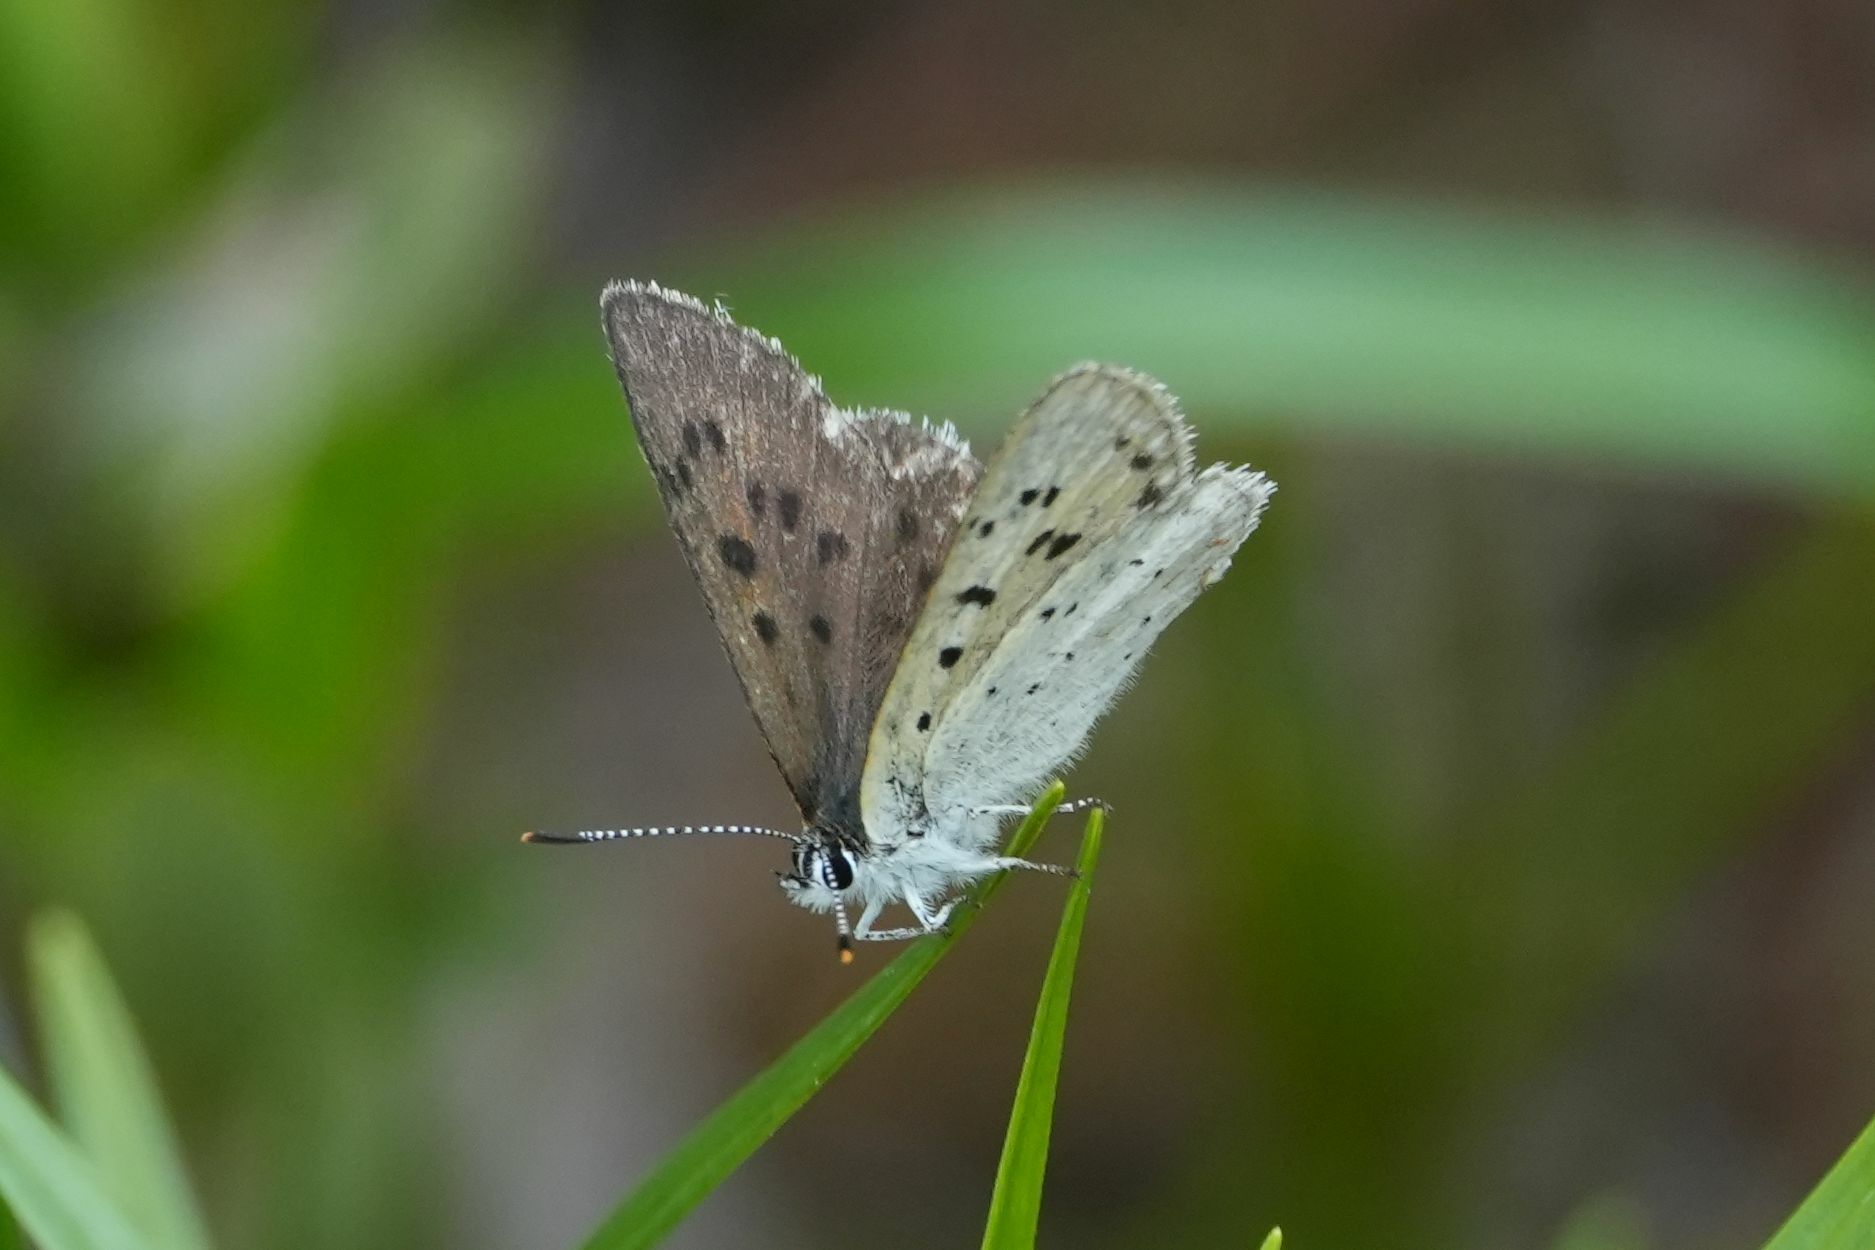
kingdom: Animalia
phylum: Arthropoda
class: Insecta
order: Lepidoptera
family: Lycaenidae
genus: Tharsalea
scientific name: Tharsalea epixanthe
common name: Bog copper
